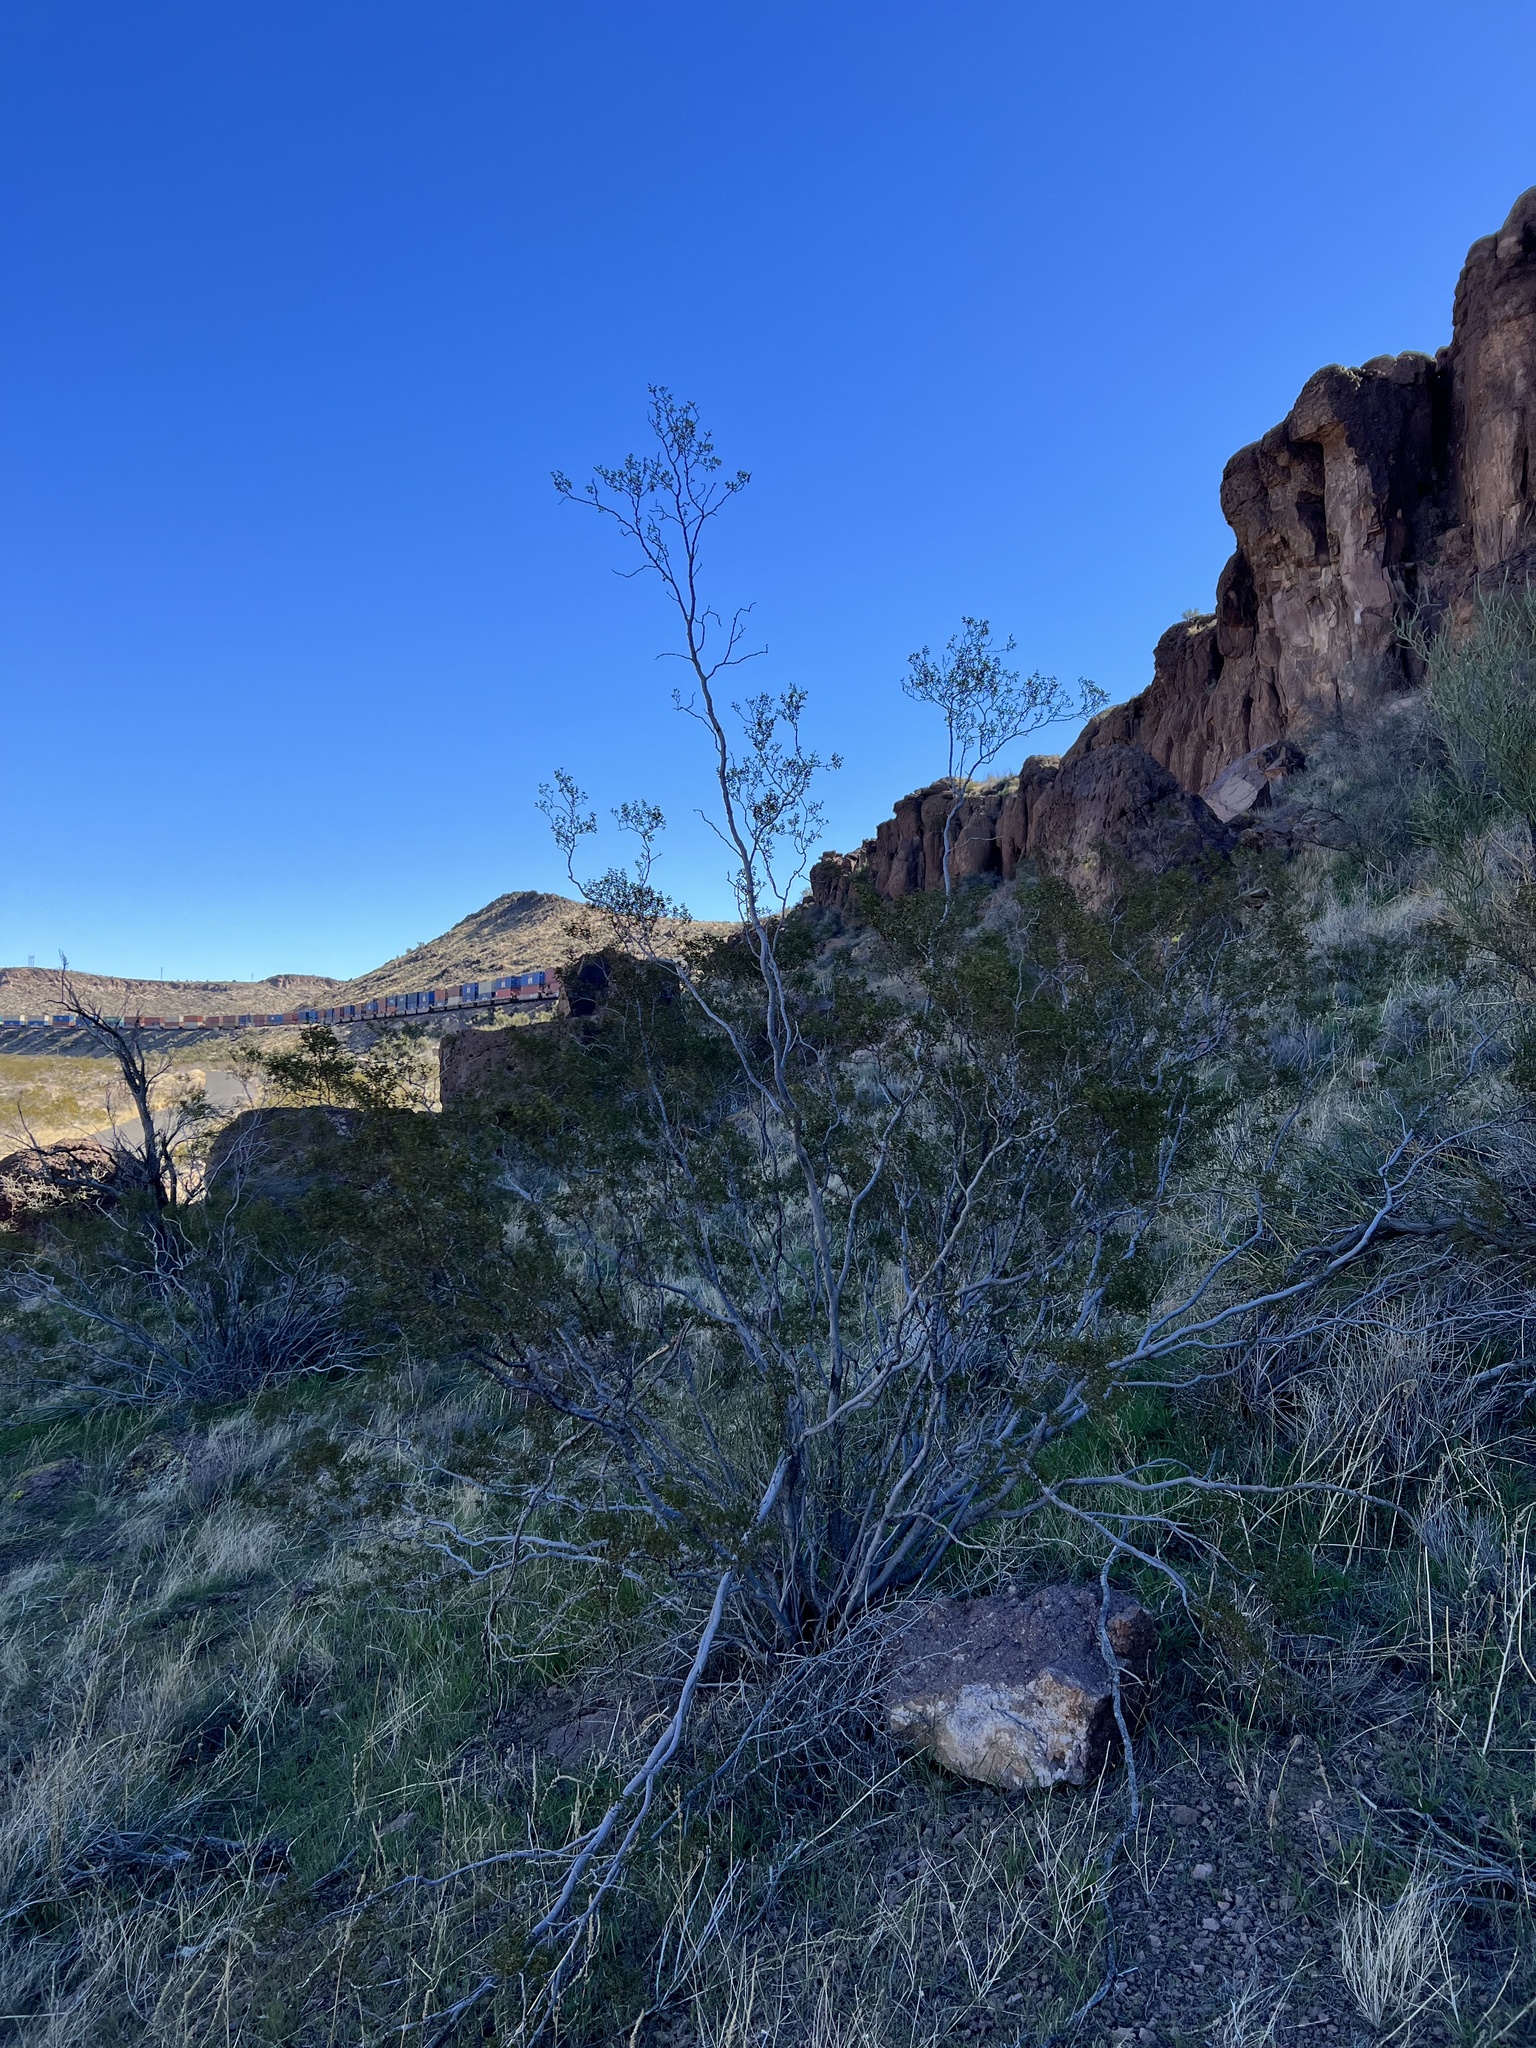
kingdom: Plantae
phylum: Tracheophyta
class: Magnoliopsida
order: Zygophyllales
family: Zygophyllaceae
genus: Larrea
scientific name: Larrea tridentata
